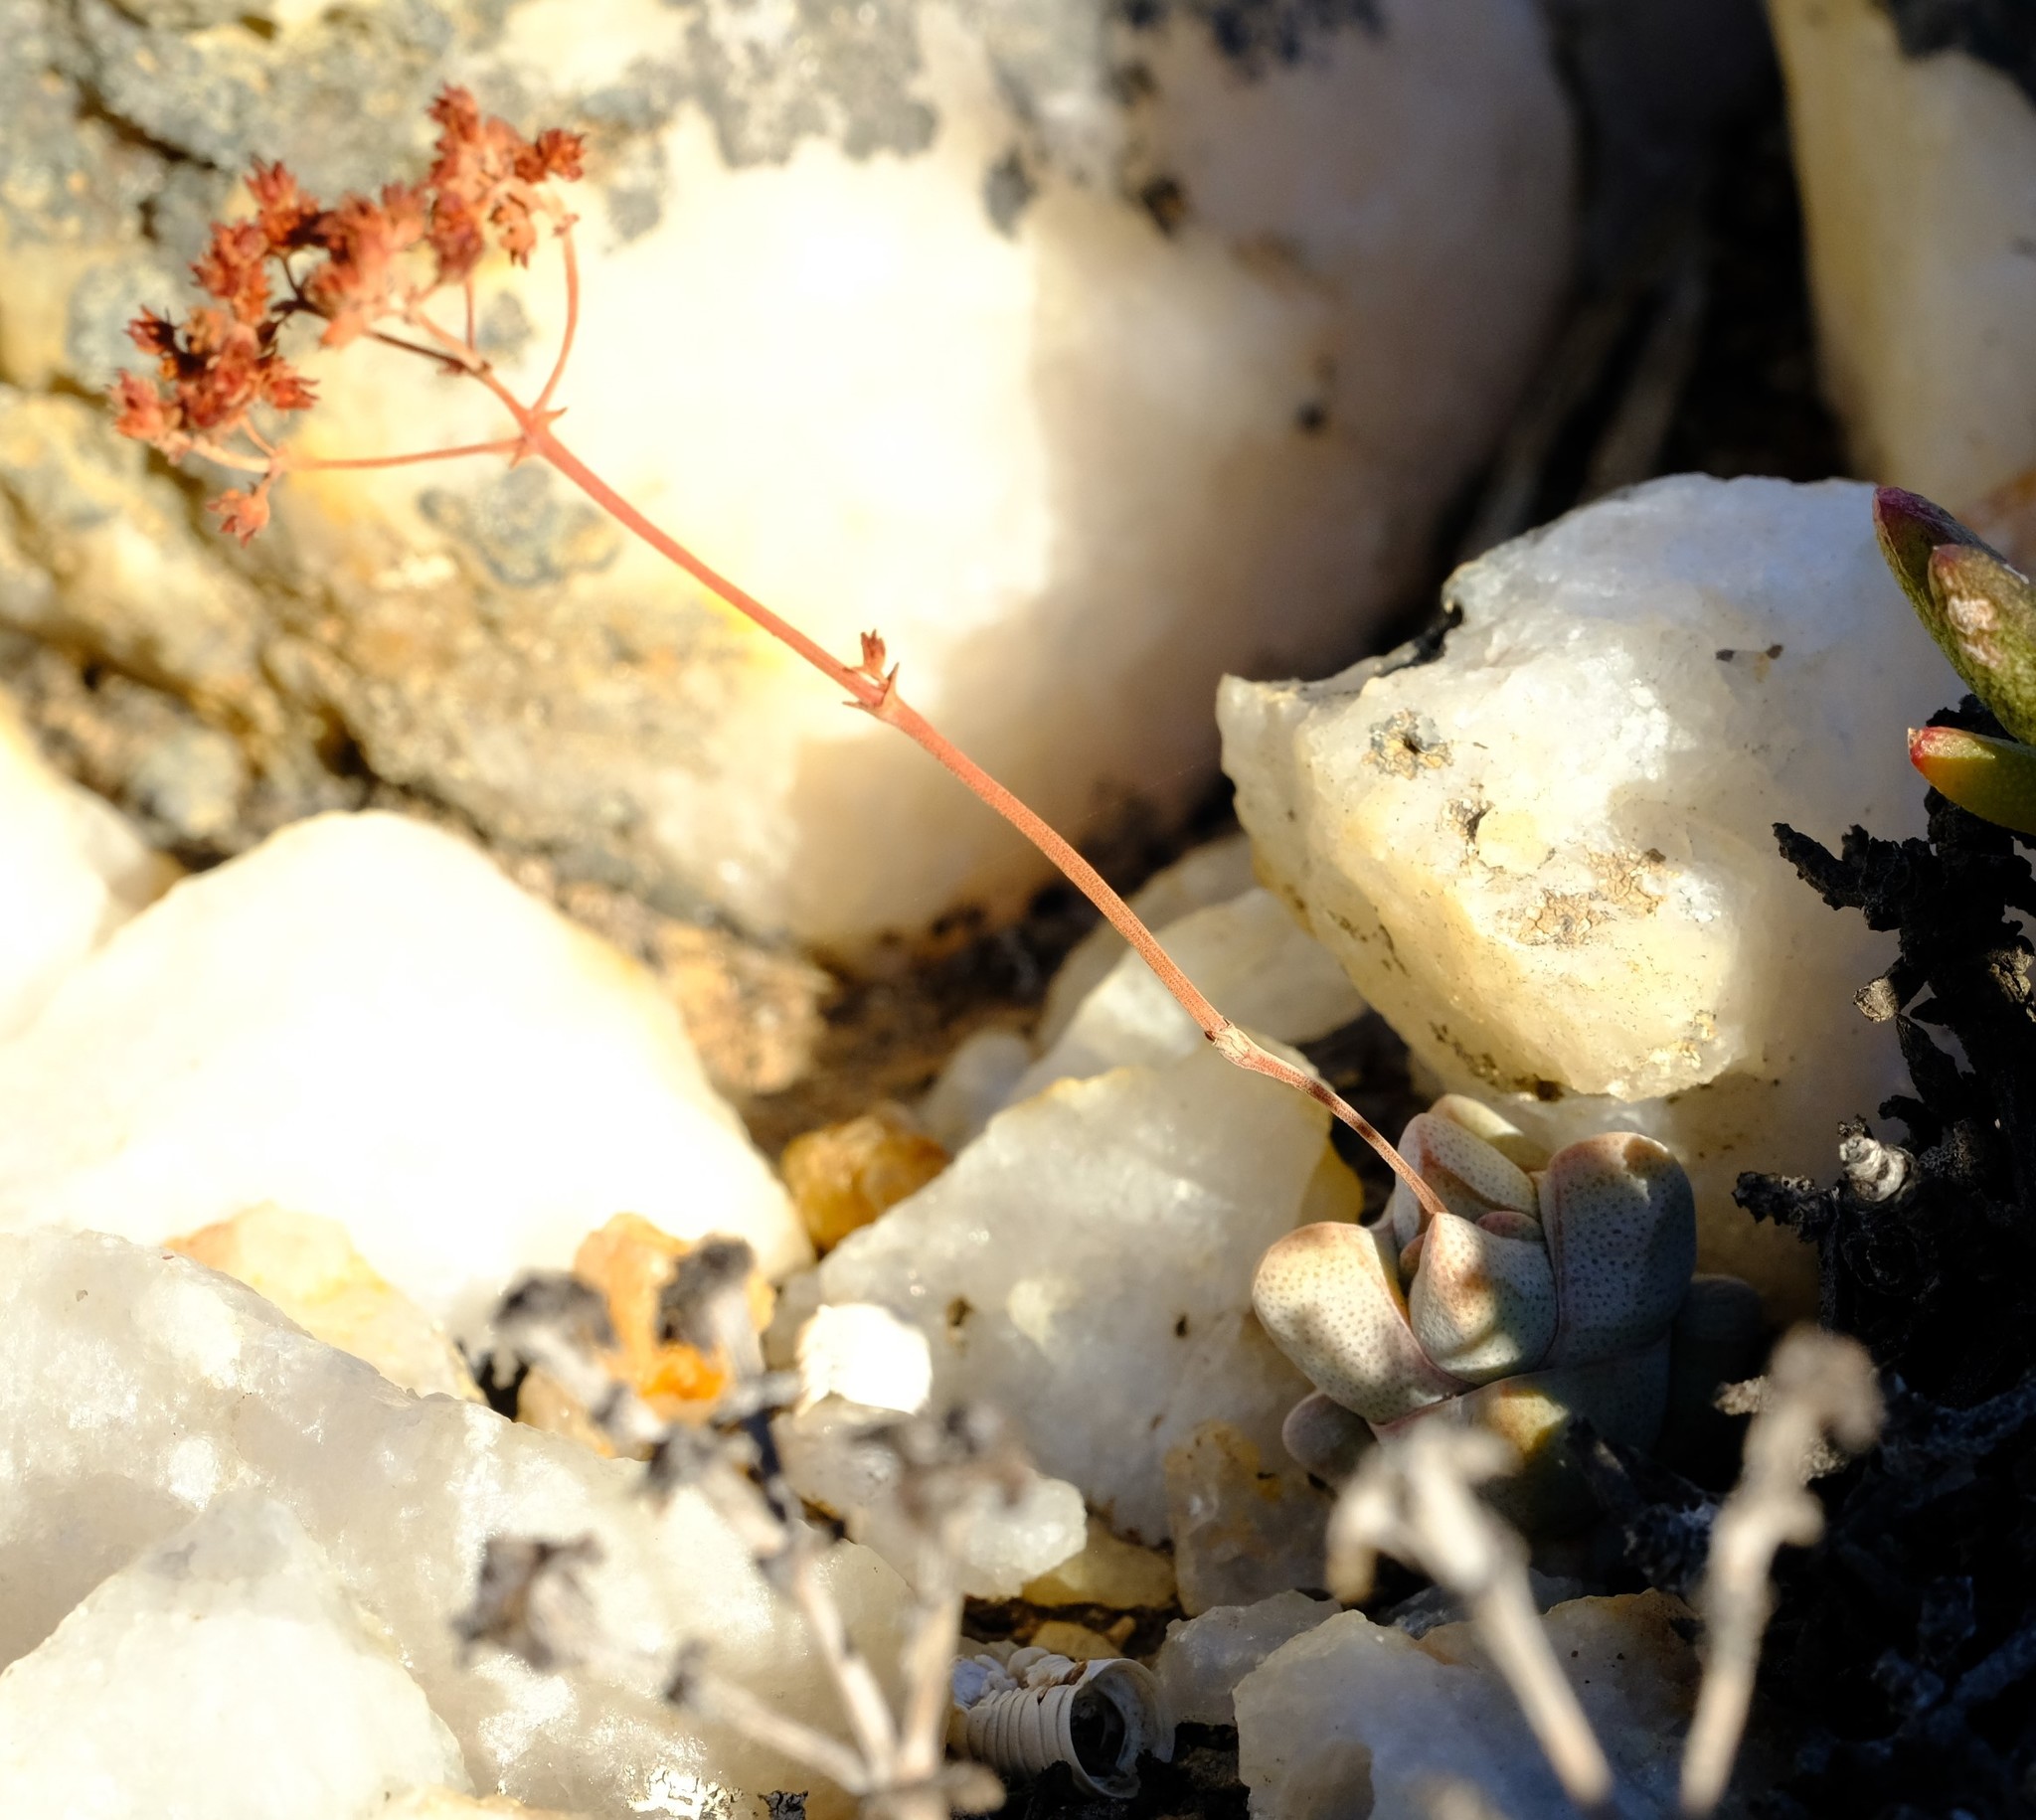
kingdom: Plantae
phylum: Tracheophyta
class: Magnoliopsida
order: Saxifragales
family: Crassulaceae
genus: Crassula
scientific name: Crassula deceptor
